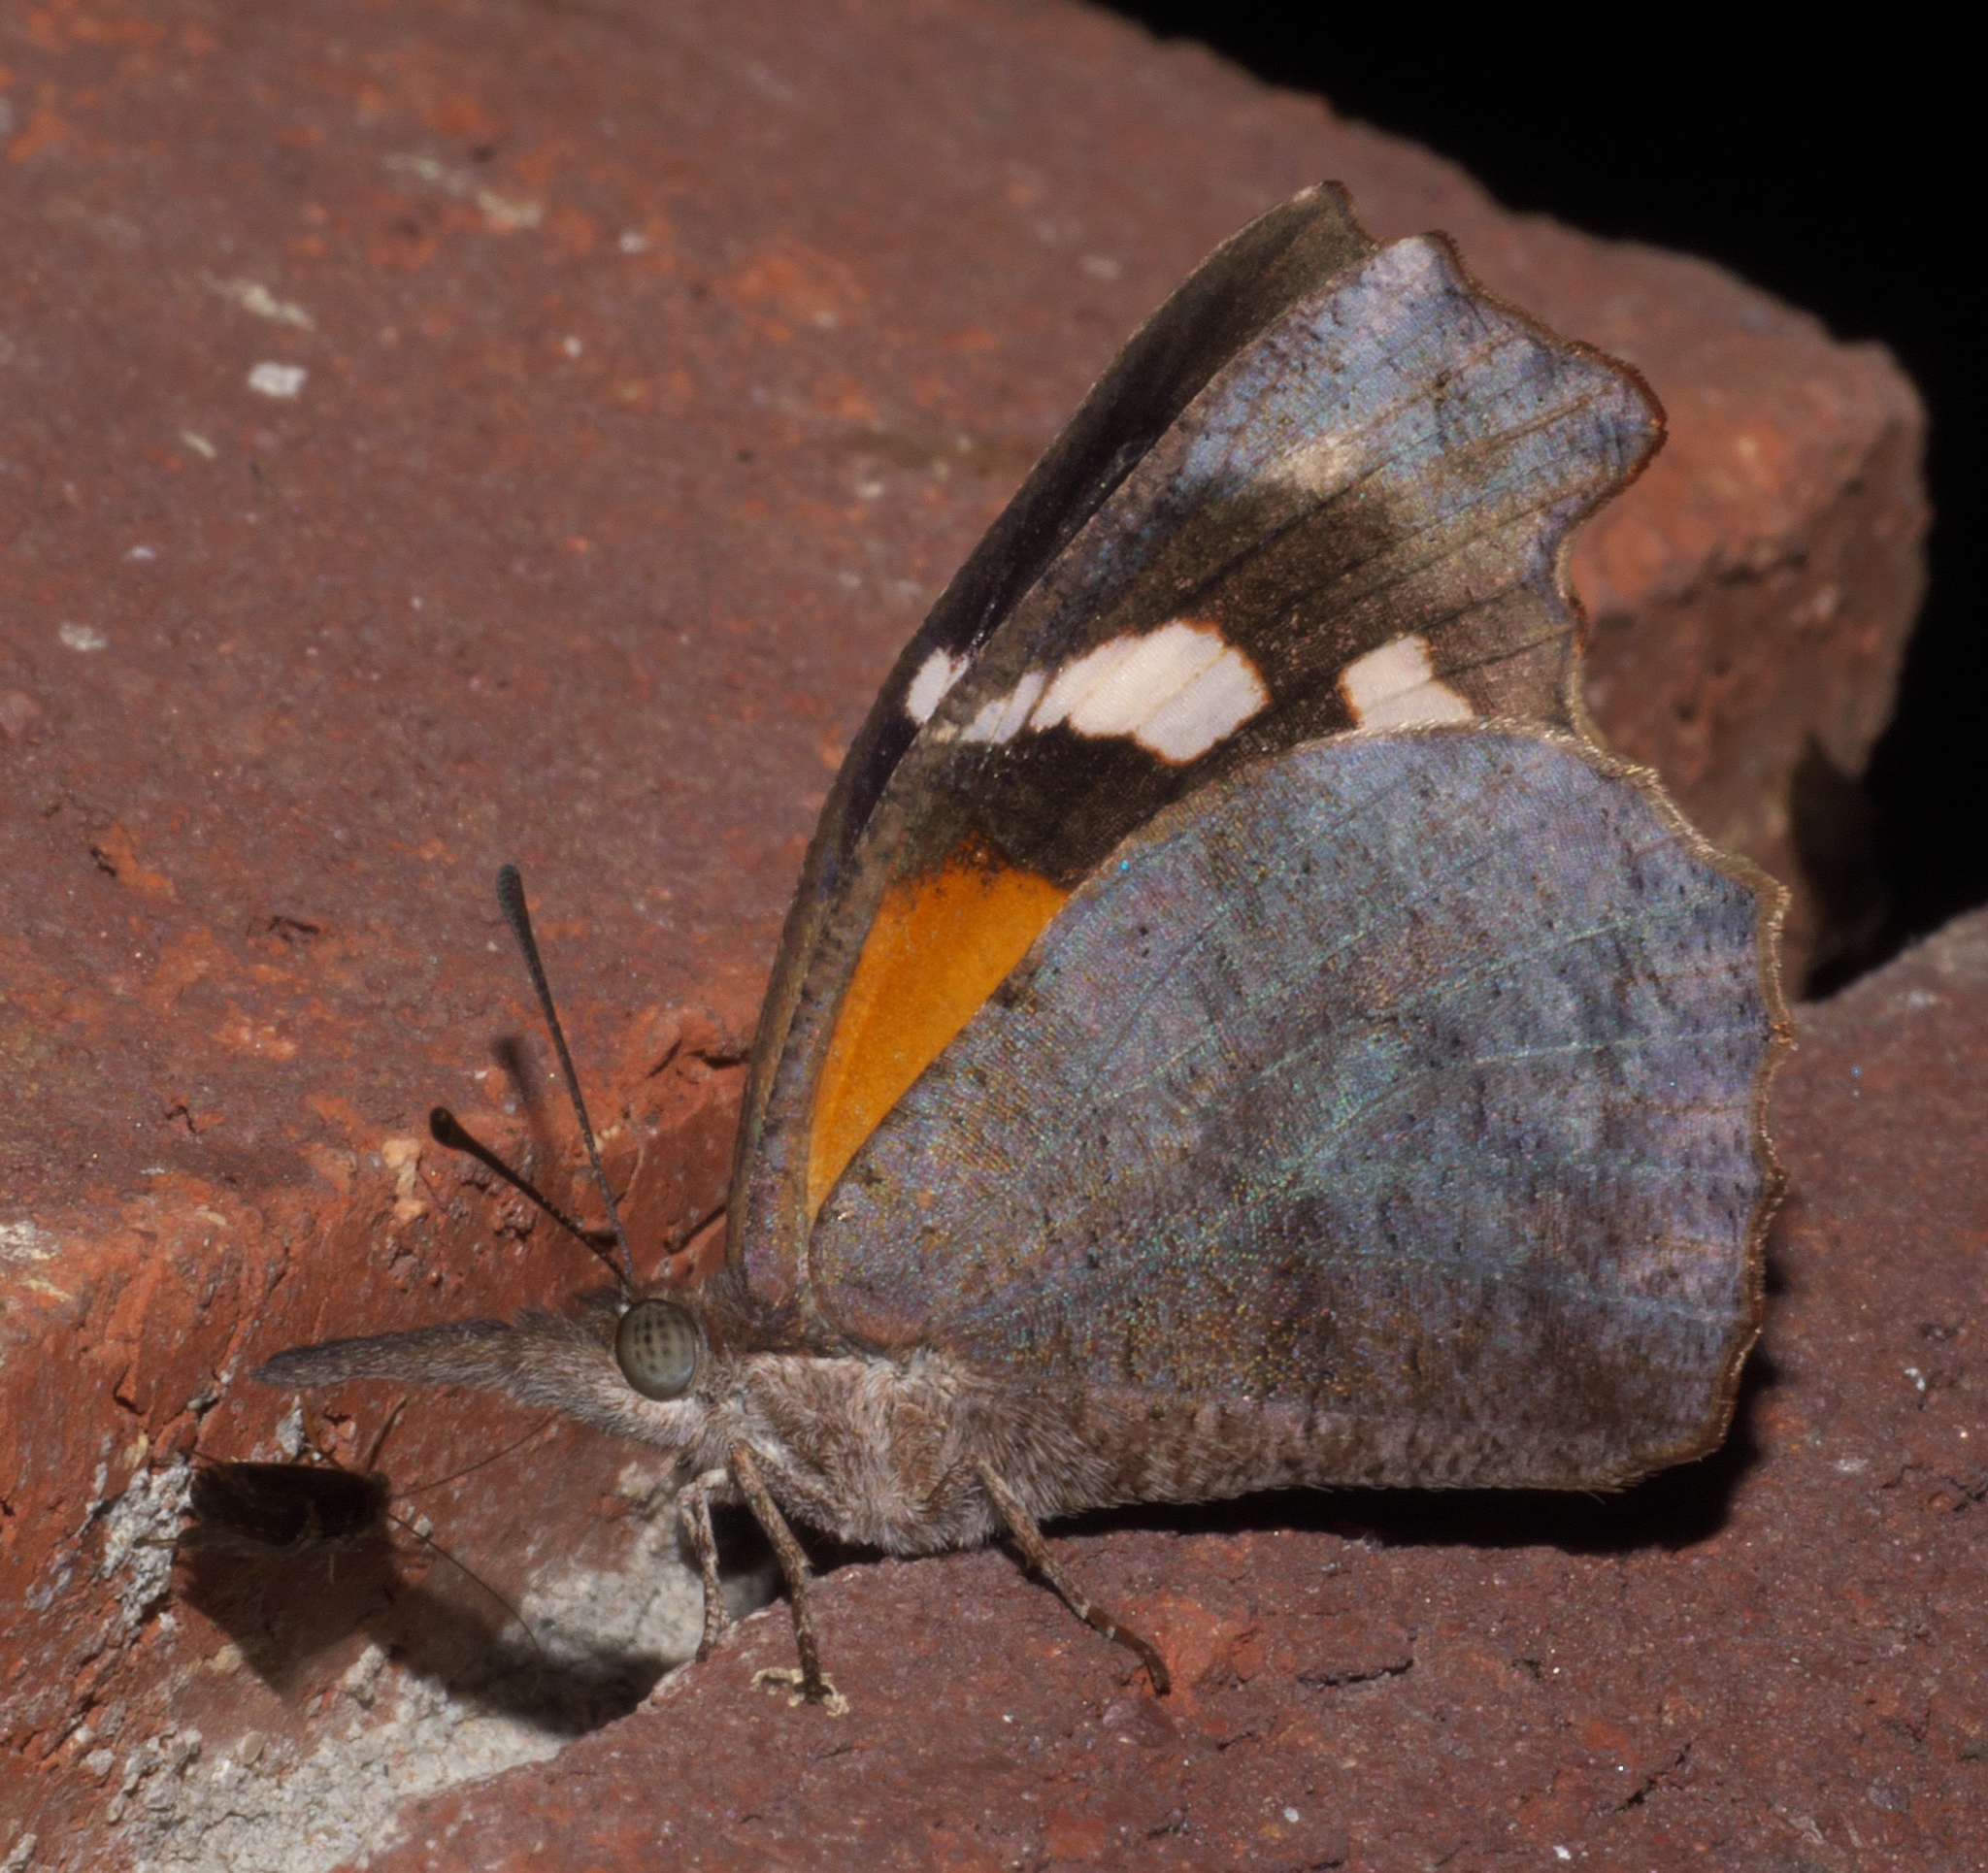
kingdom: Animalia
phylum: Arthropoda
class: Insecta
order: Lepidoptera
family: Nymphalidae
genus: Libytheana
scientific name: Libytheana carinenta
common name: American snout
